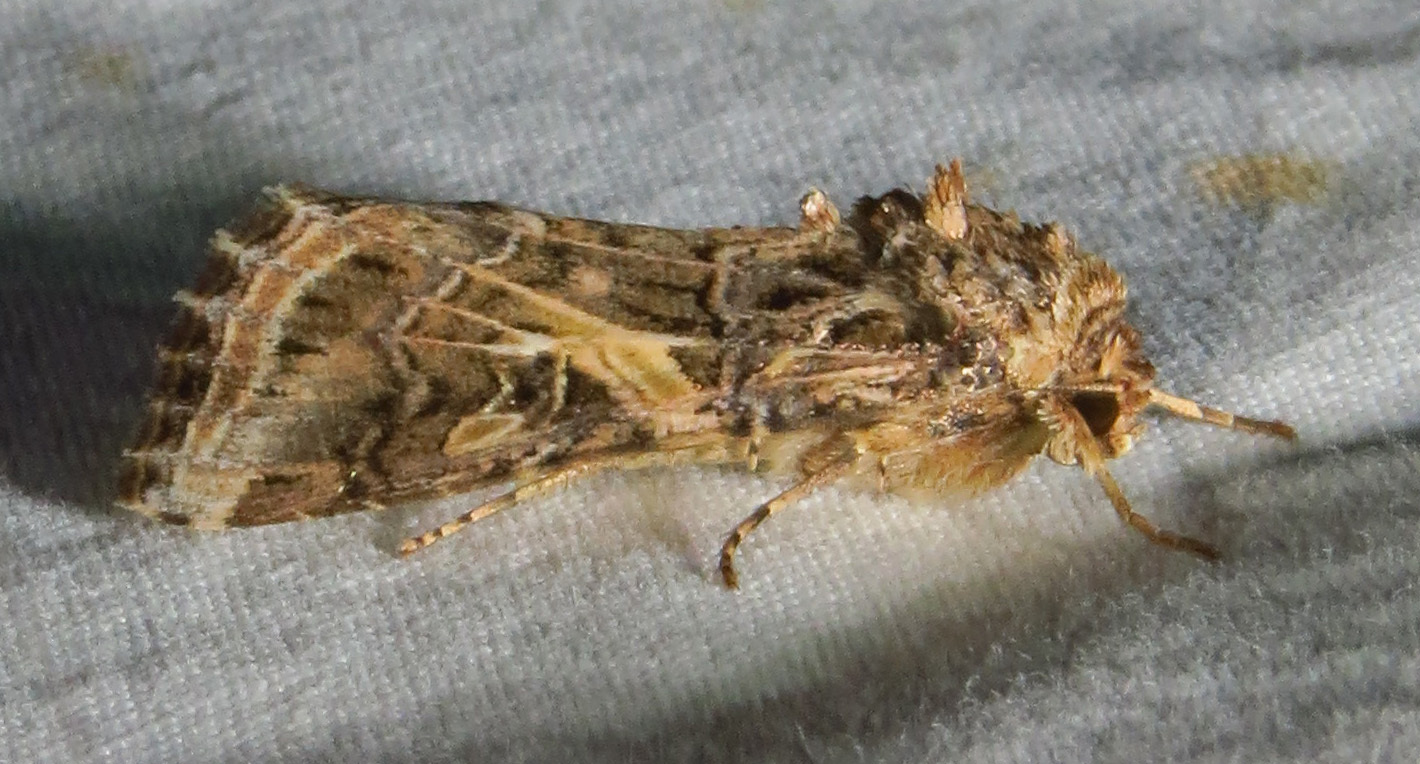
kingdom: Animalia
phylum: Arthropoda
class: Insecta
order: Lepidoptera
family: Noctuidae
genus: Spodoptera
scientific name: Spodoptera ornithogalli
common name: Yellow-striped armyworm
